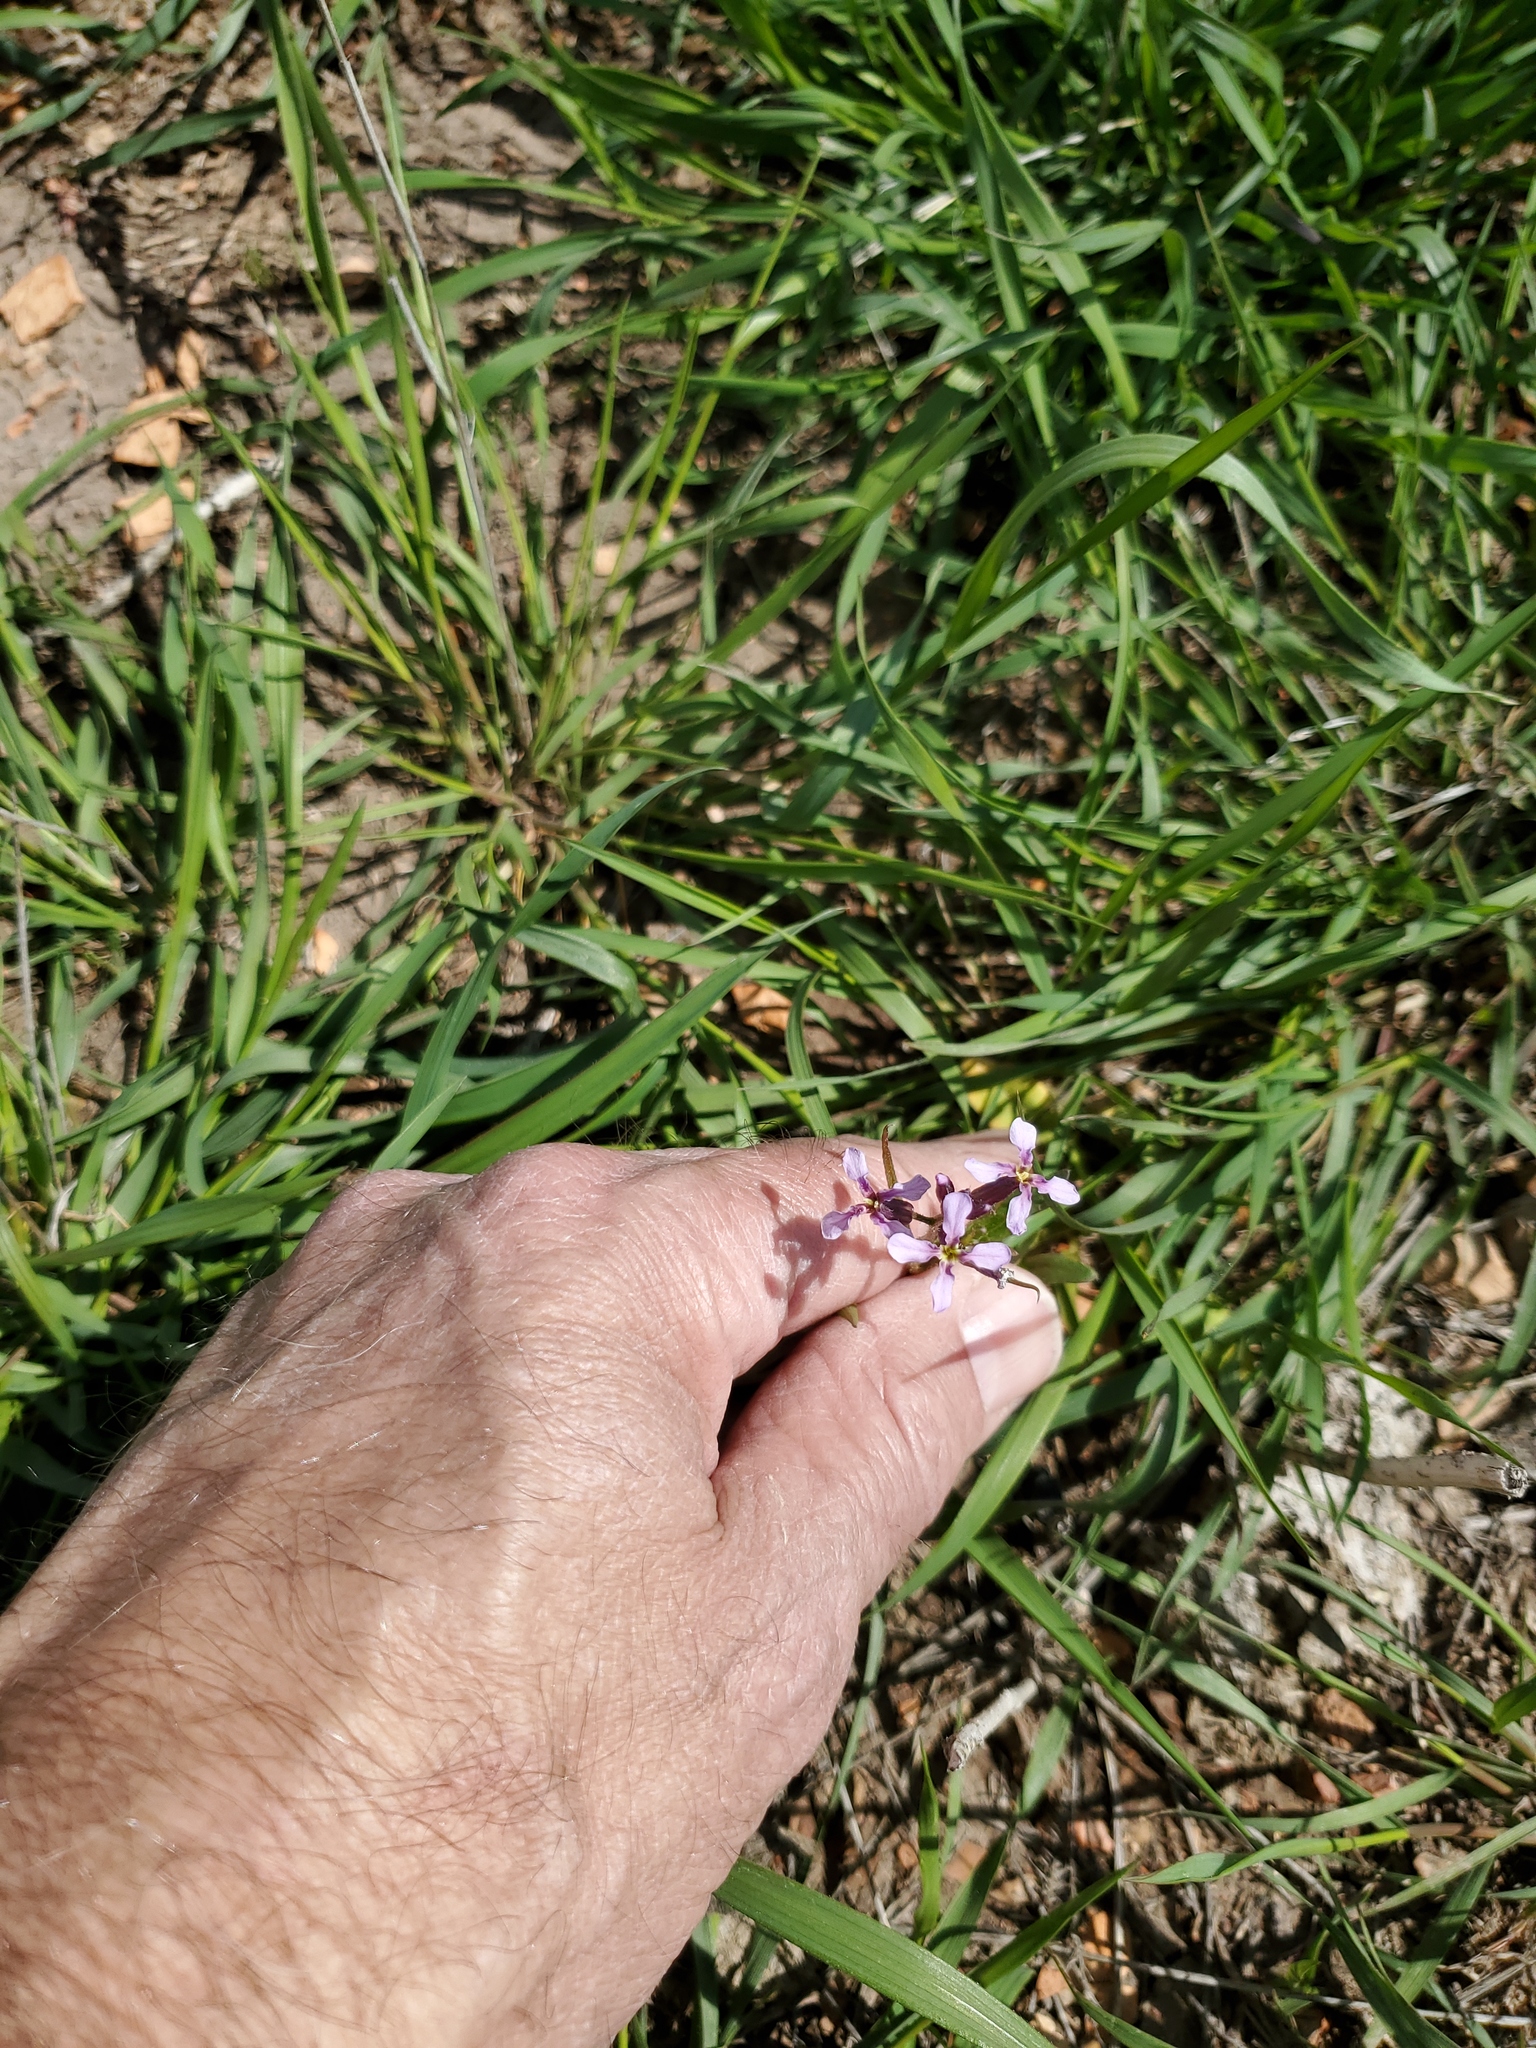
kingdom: Plantae
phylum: Tracheophyta
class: Magnoliopsida
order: Brassicales
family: Brassicaceae
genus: Chorispora
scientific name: Chorispora tenella
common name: Crossflower
